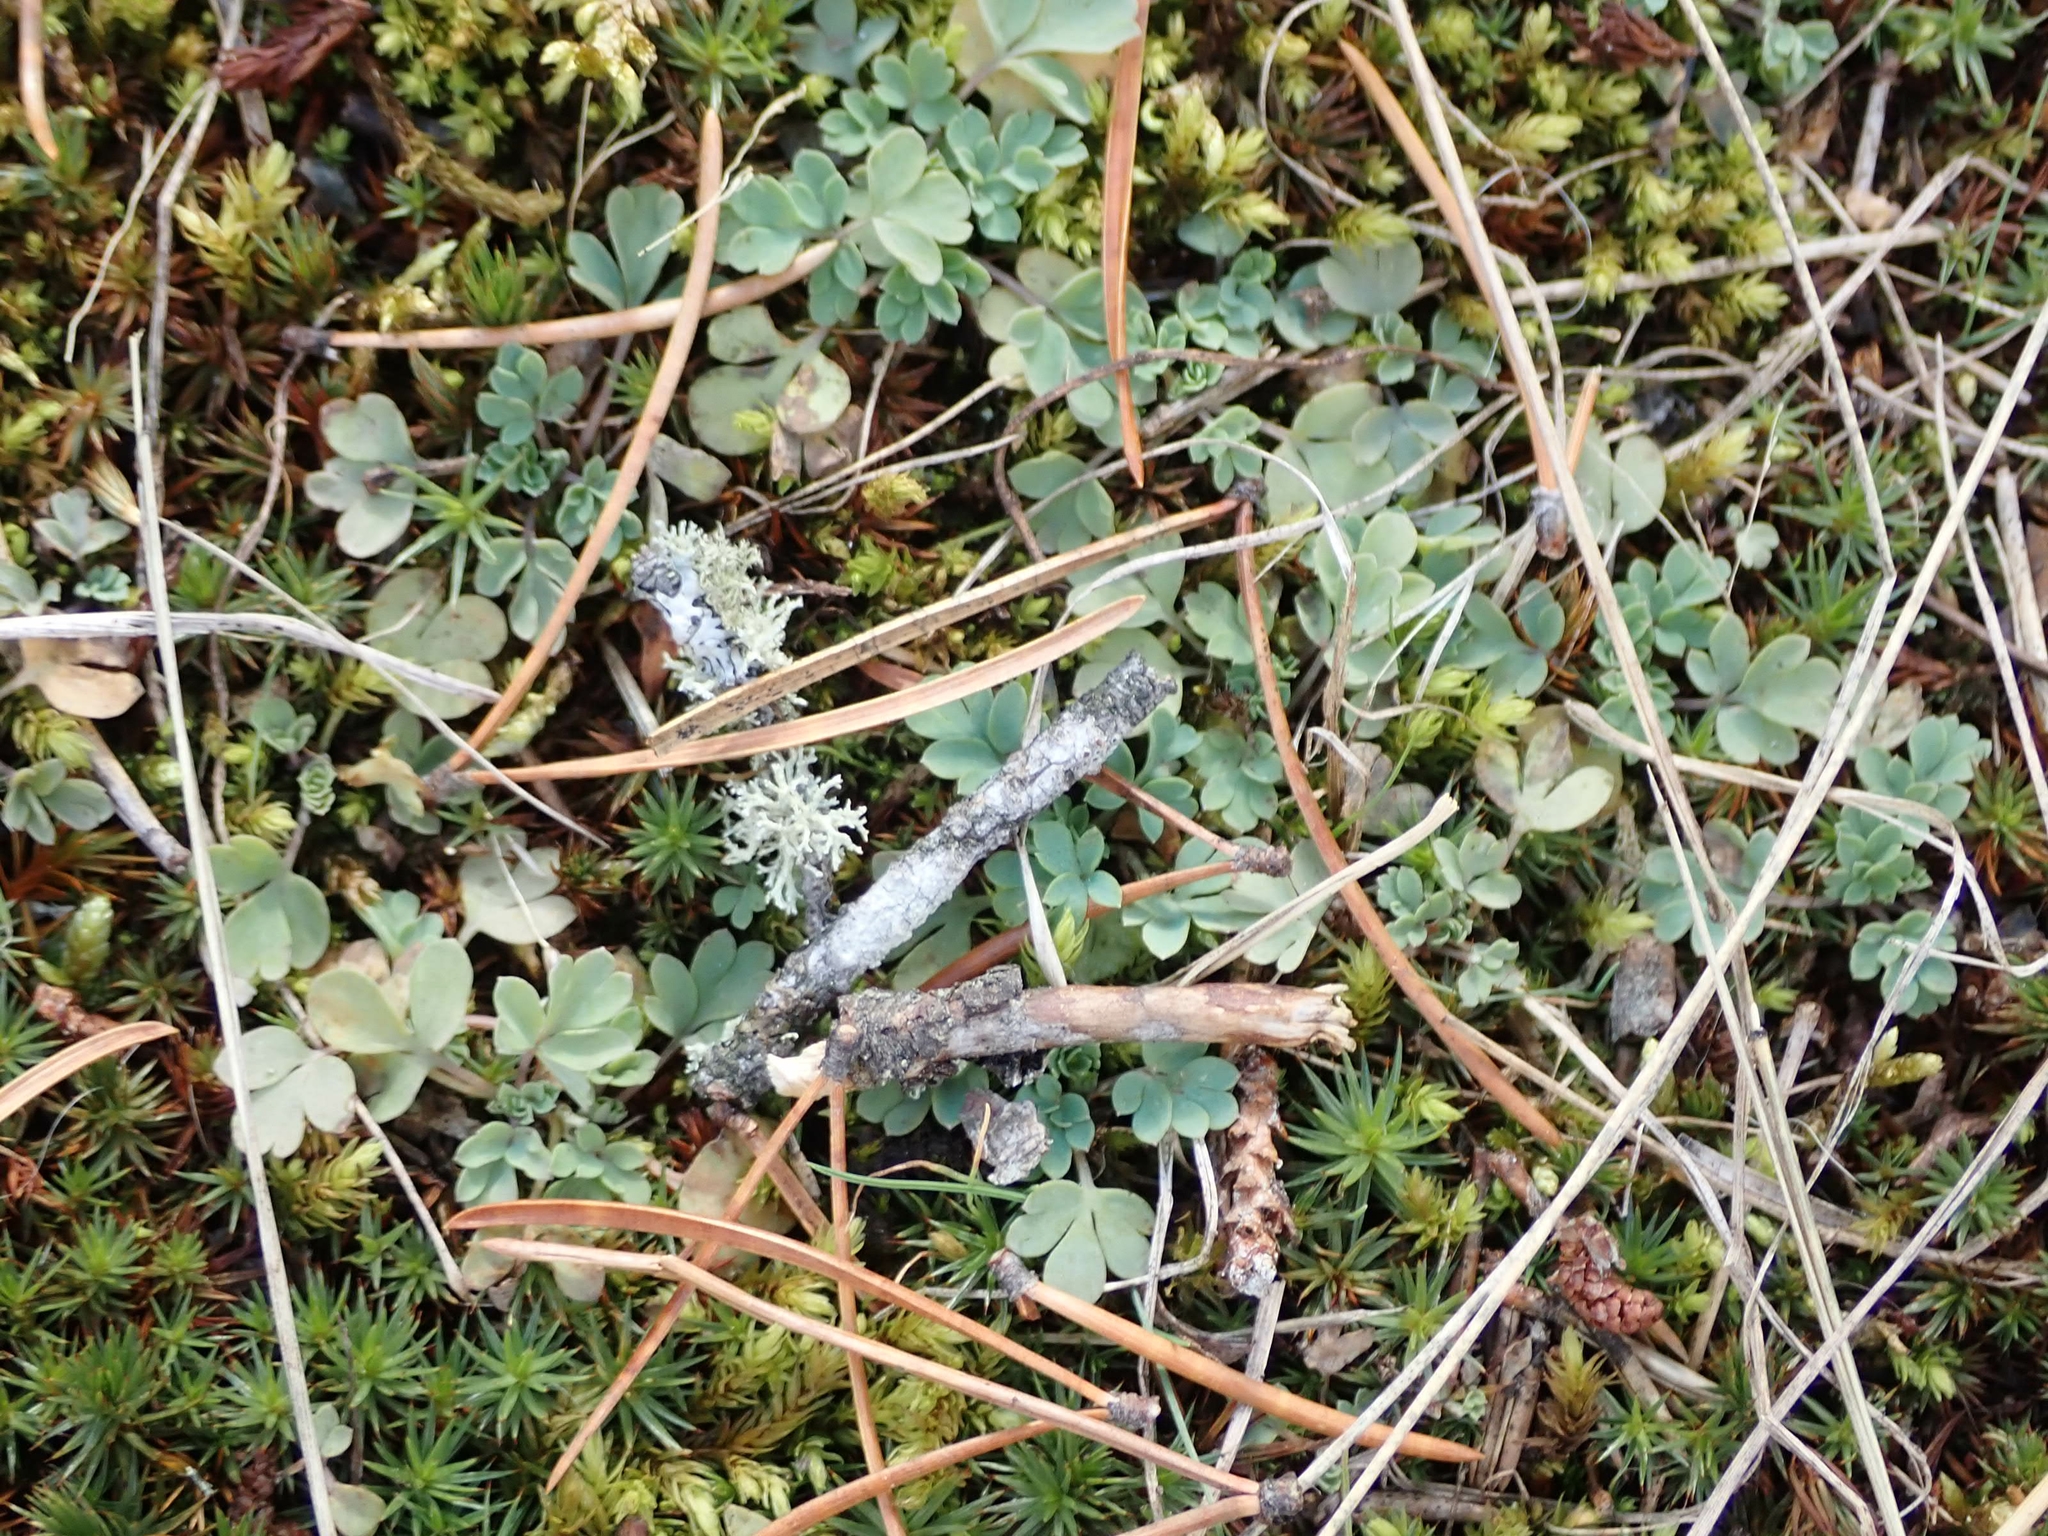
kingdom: Plantae
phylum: Tracheophyta
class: Magnoliopsida
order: Ranunculales
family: Papaveraceae
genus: Capnoides
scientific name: Capnoides sempervirens
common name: Rock harlequin
